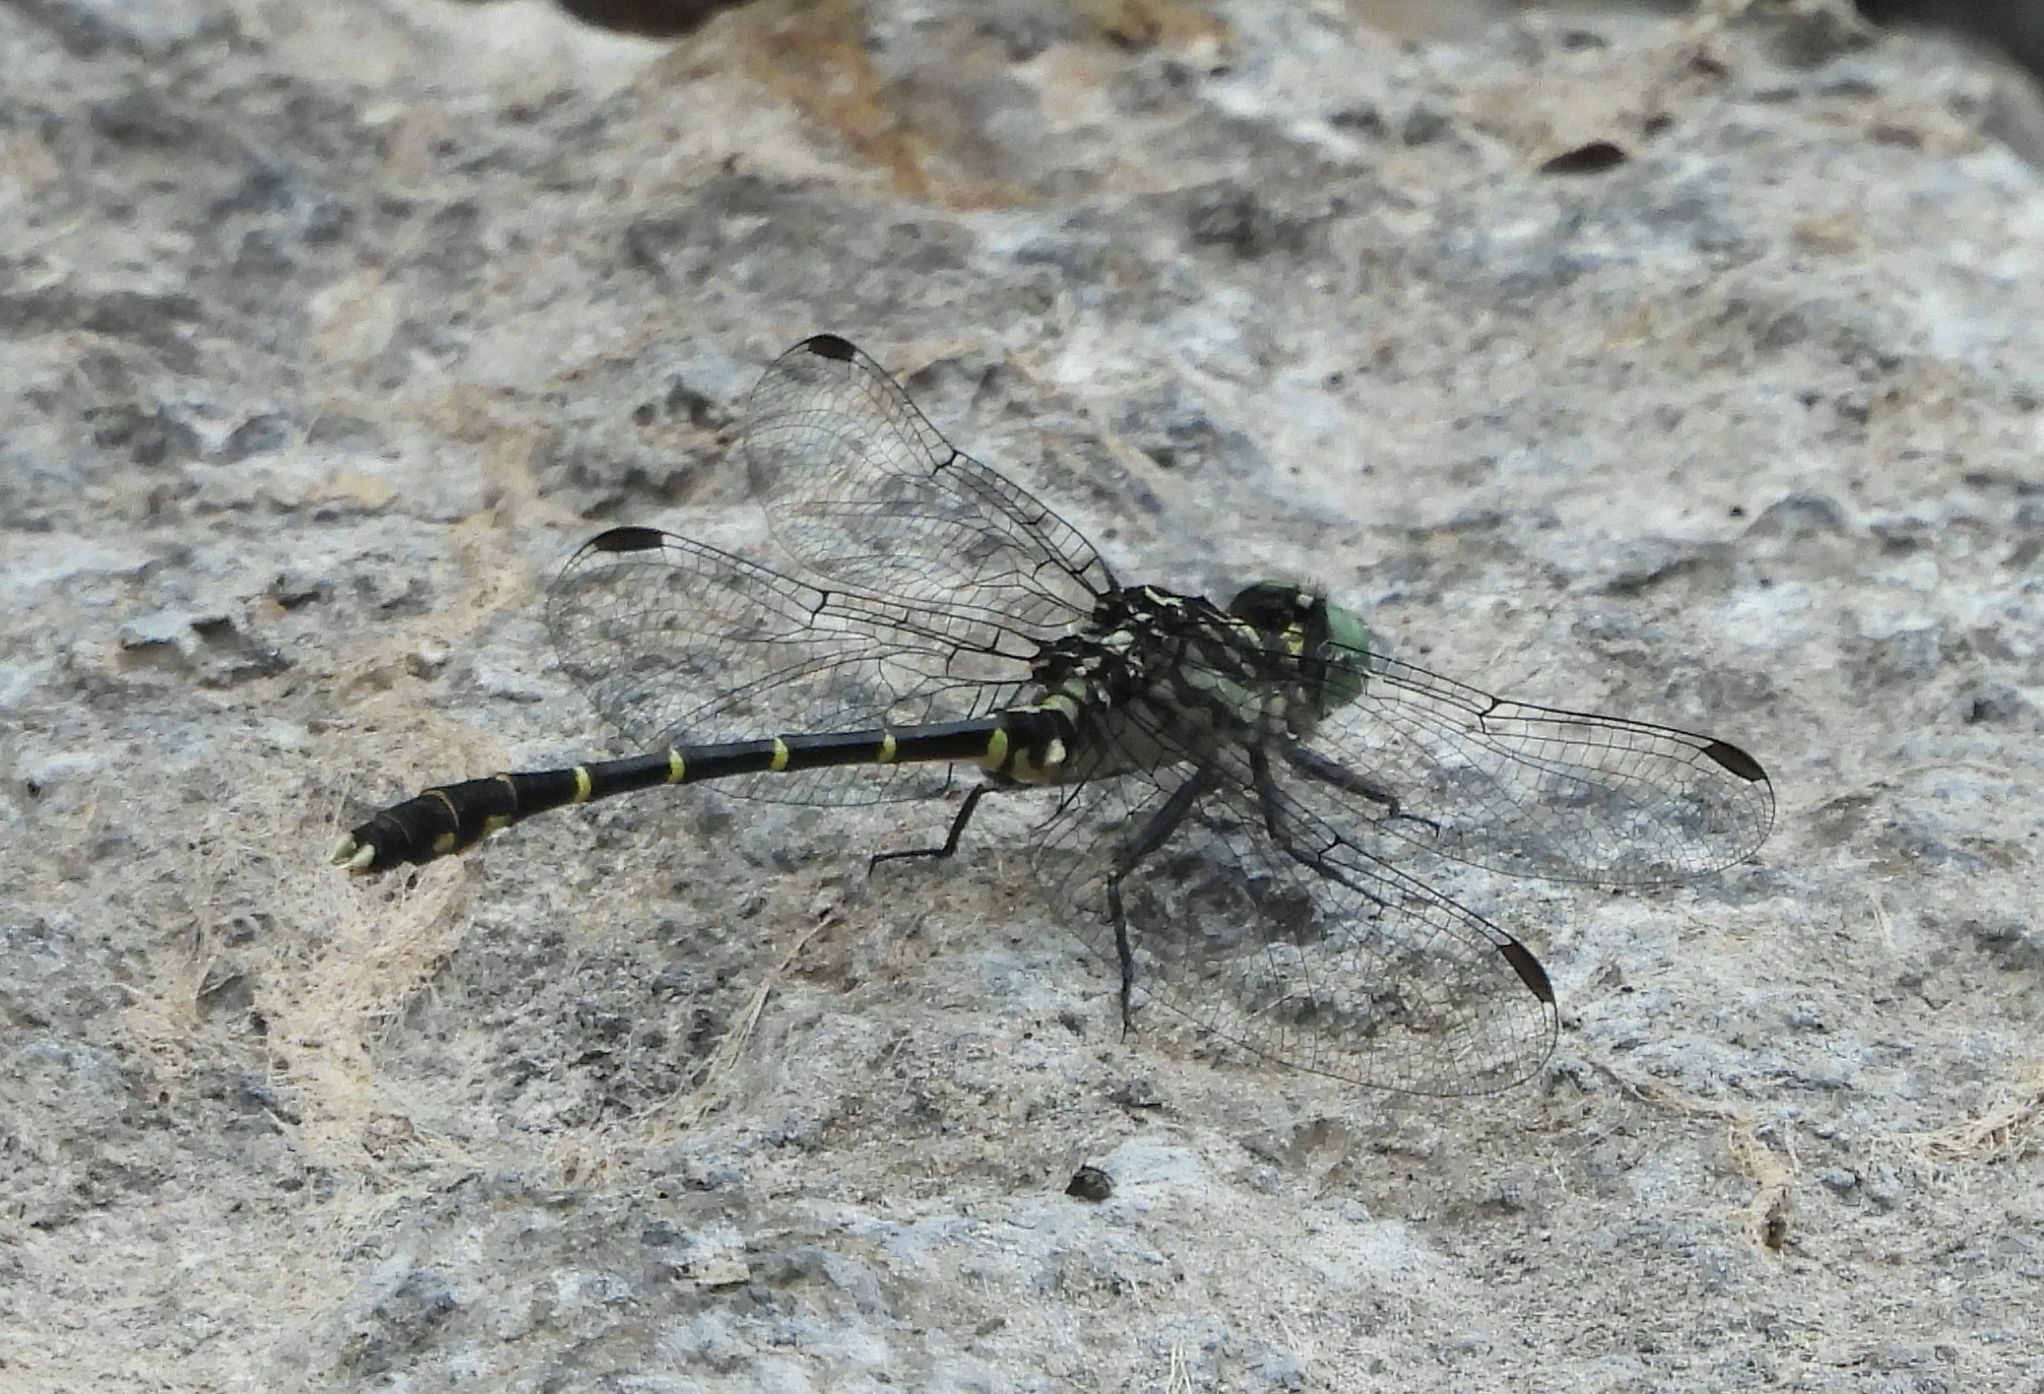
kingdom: Animalia
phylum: Arthropoda
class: Insecta
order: Odonata
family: Gomphidae
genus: Stylogomphus
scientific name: Stylogomphus albistylus
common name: Eastern least clubtail
